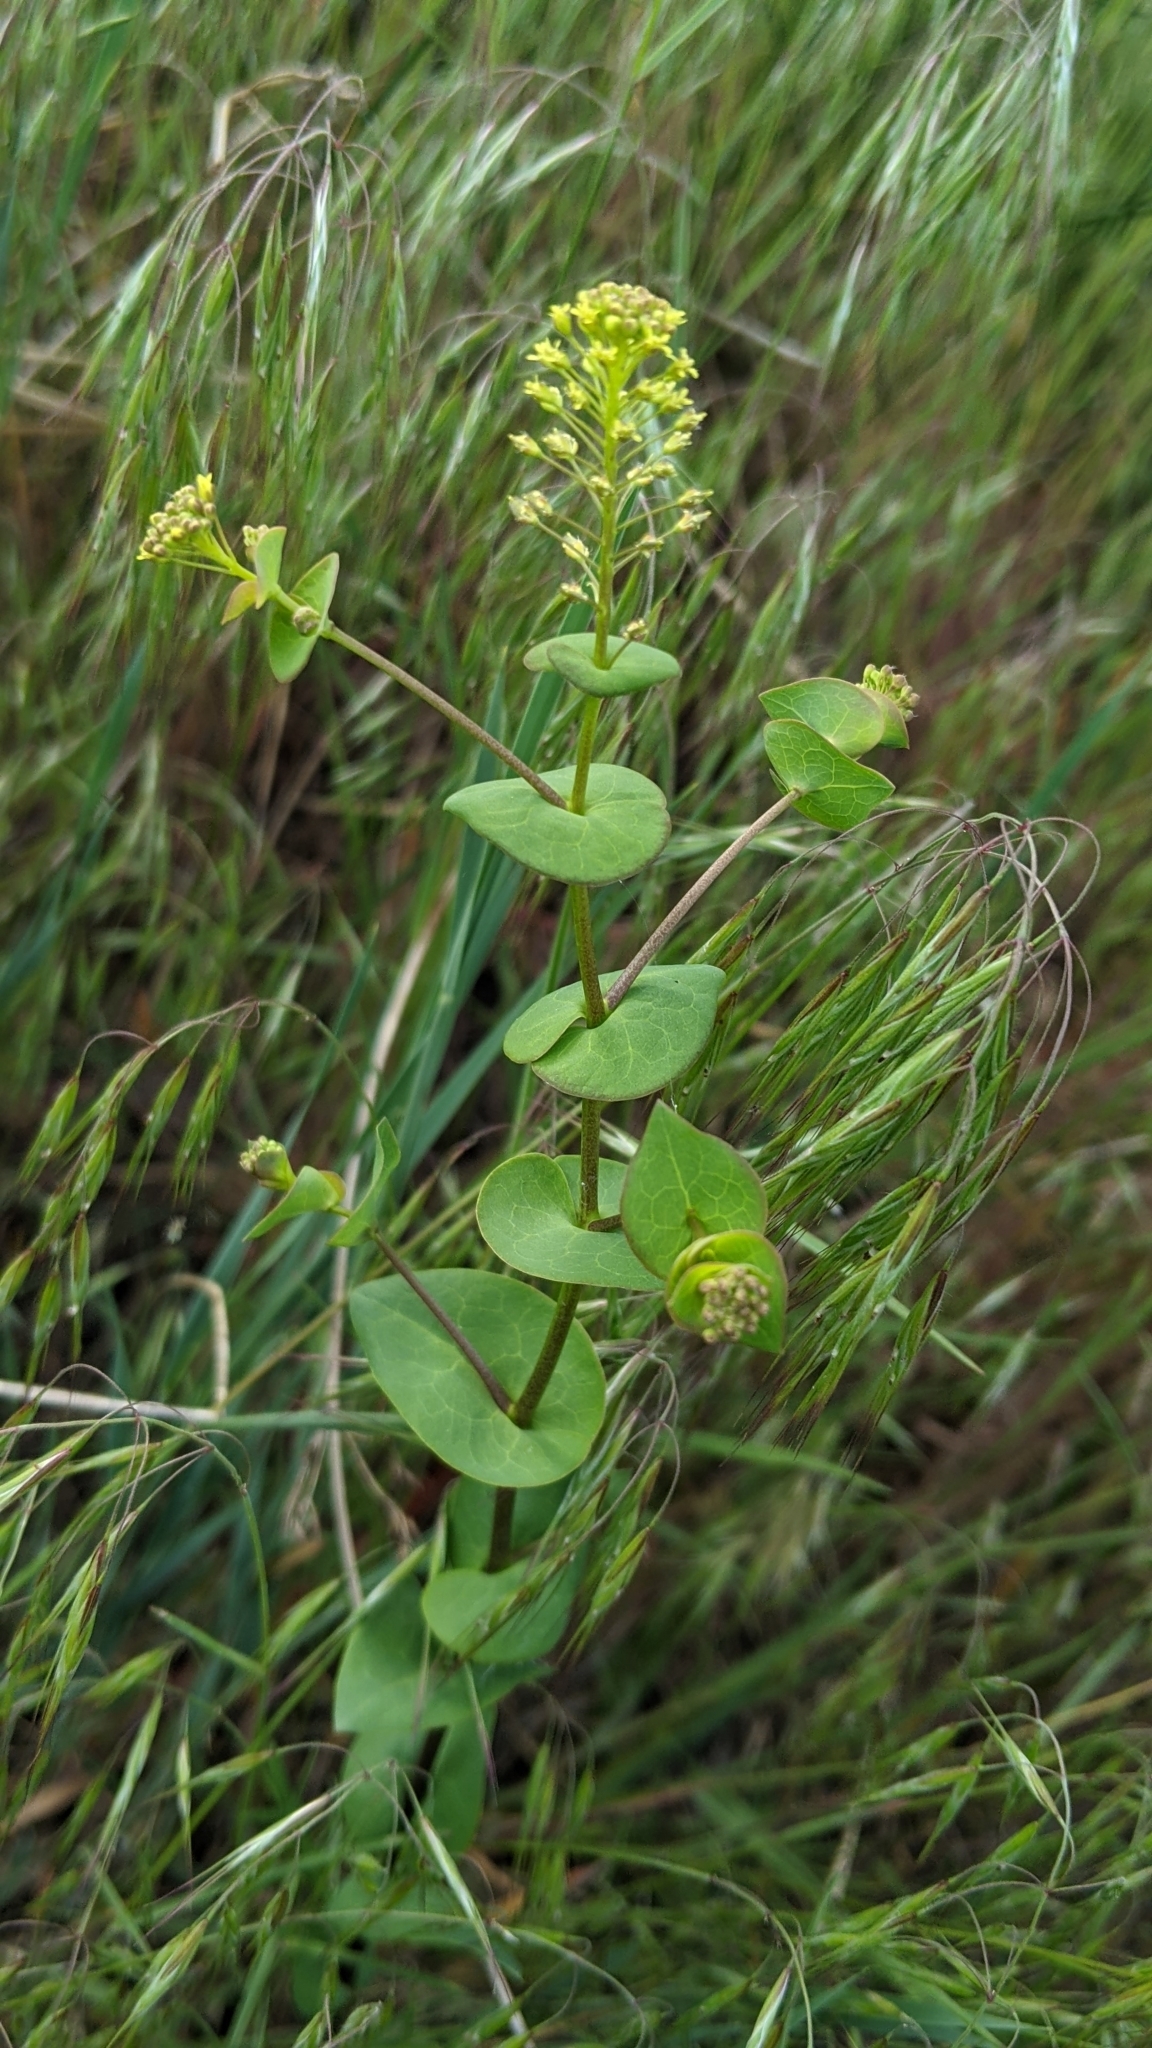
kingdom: Plantae
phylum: Tracheophyta
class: Magnoliopsida
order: Brassicales
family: Brassicaceae
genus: Lepidium
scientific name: Lepidium perfoliatum
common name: Perfoliate pepperwort
